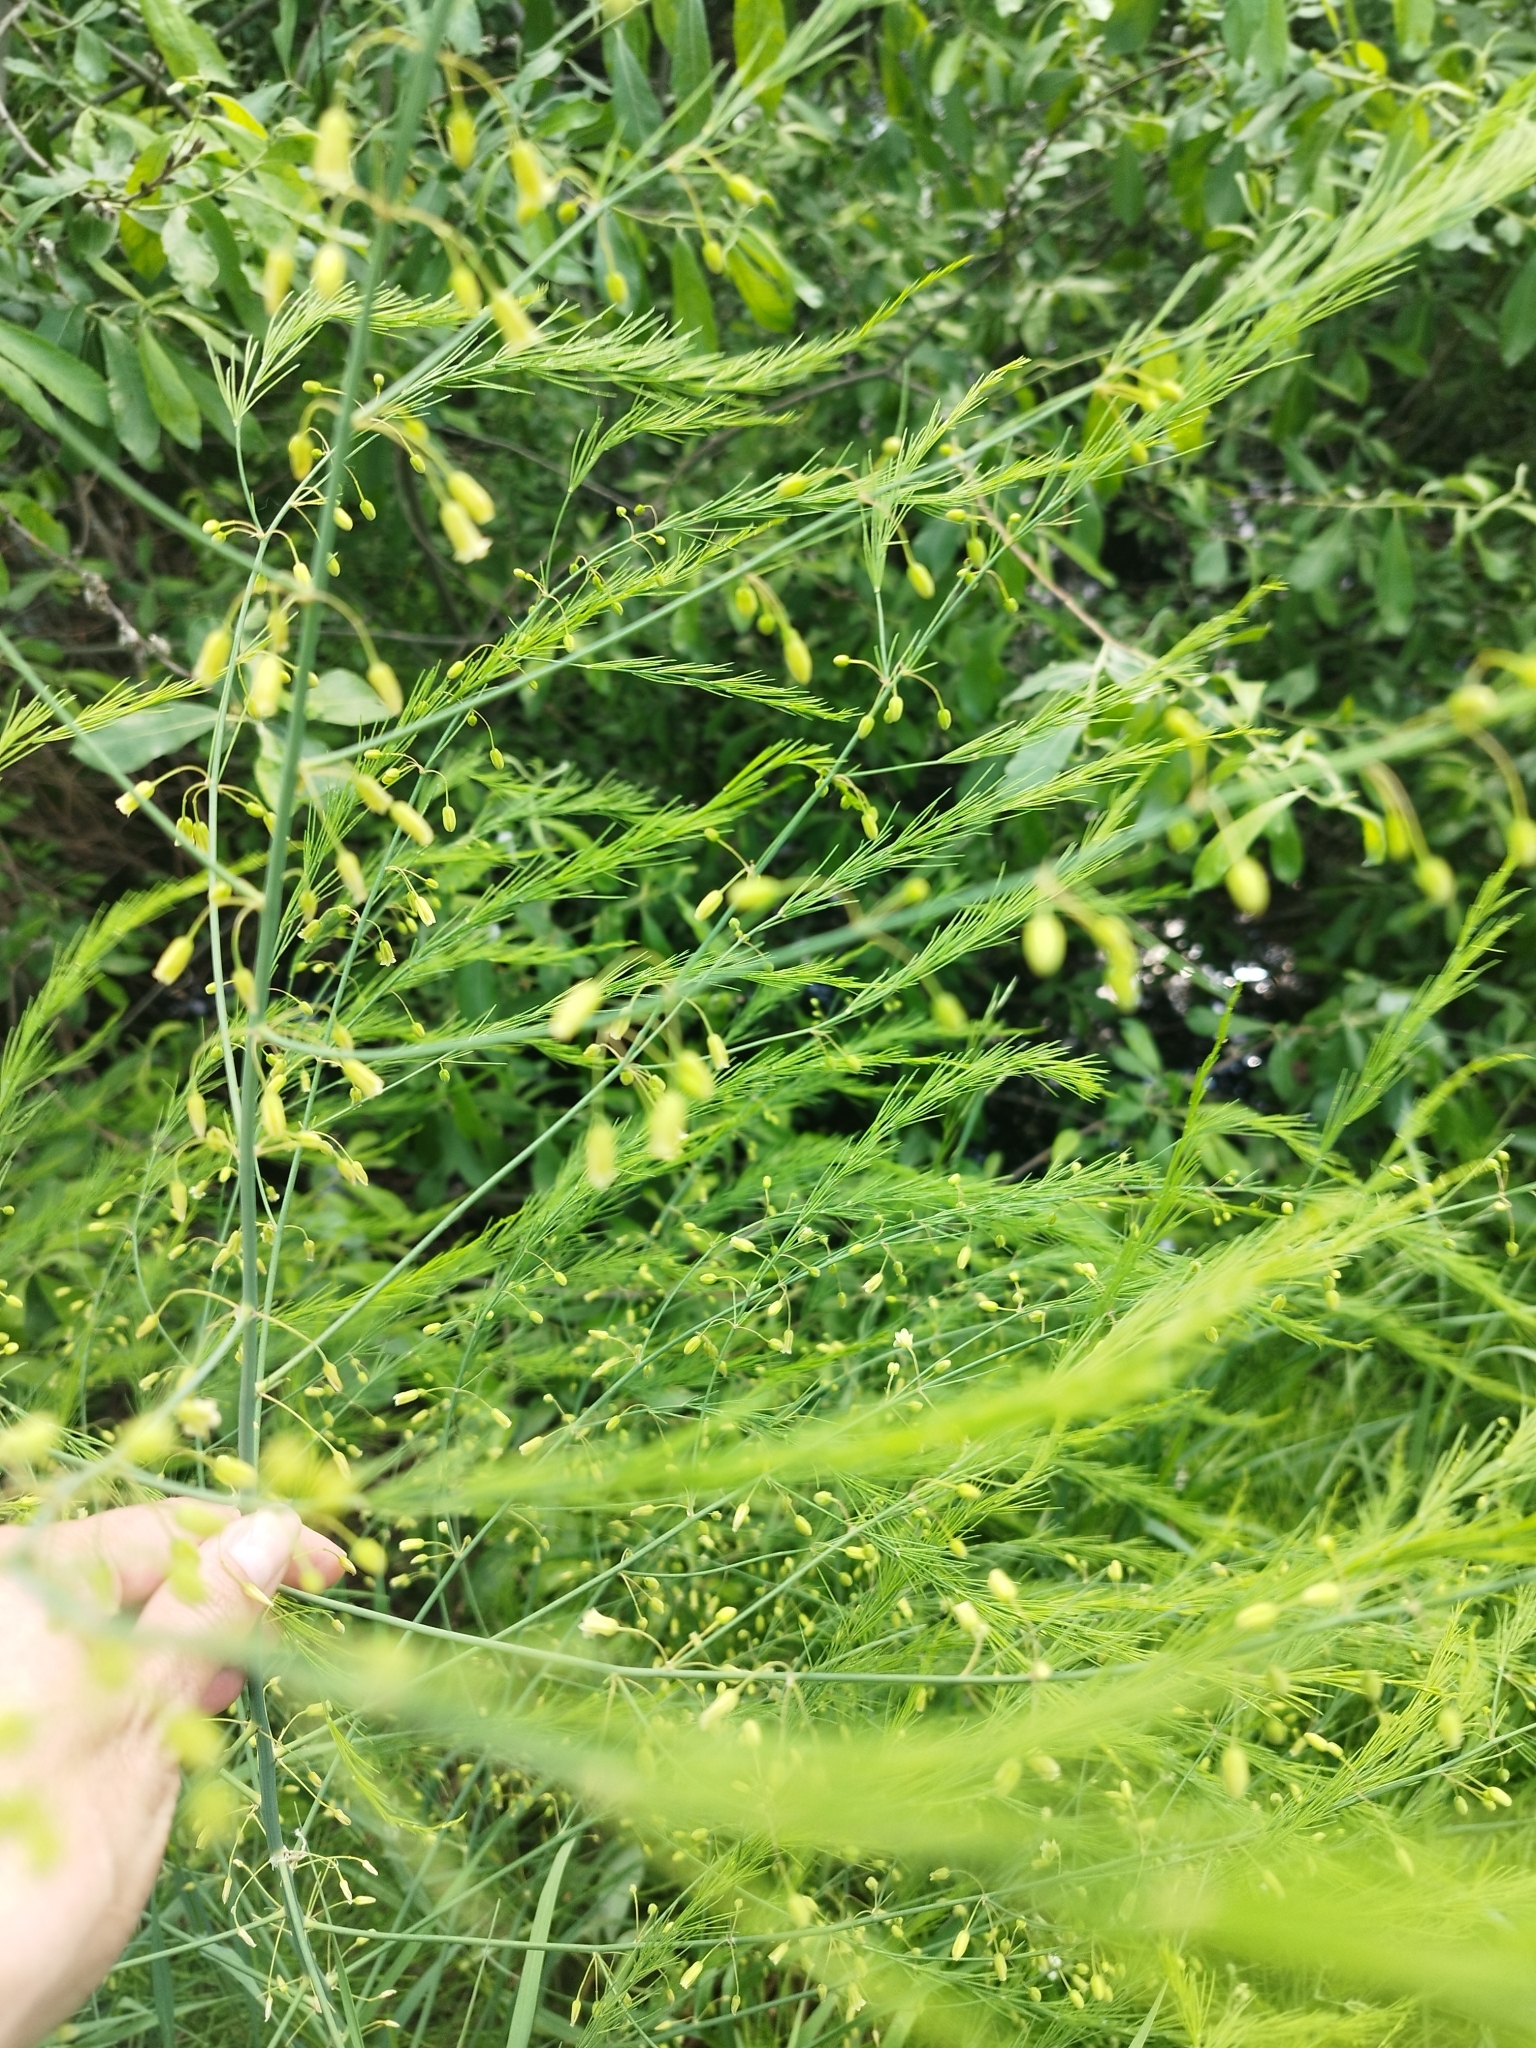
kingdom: Plantae
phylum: Tracheophyta
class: Liliopsida
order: Asparagales
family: Asparagaceae
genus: Asparagus
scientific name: Asparagus officinalis
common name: Garden asparagus
